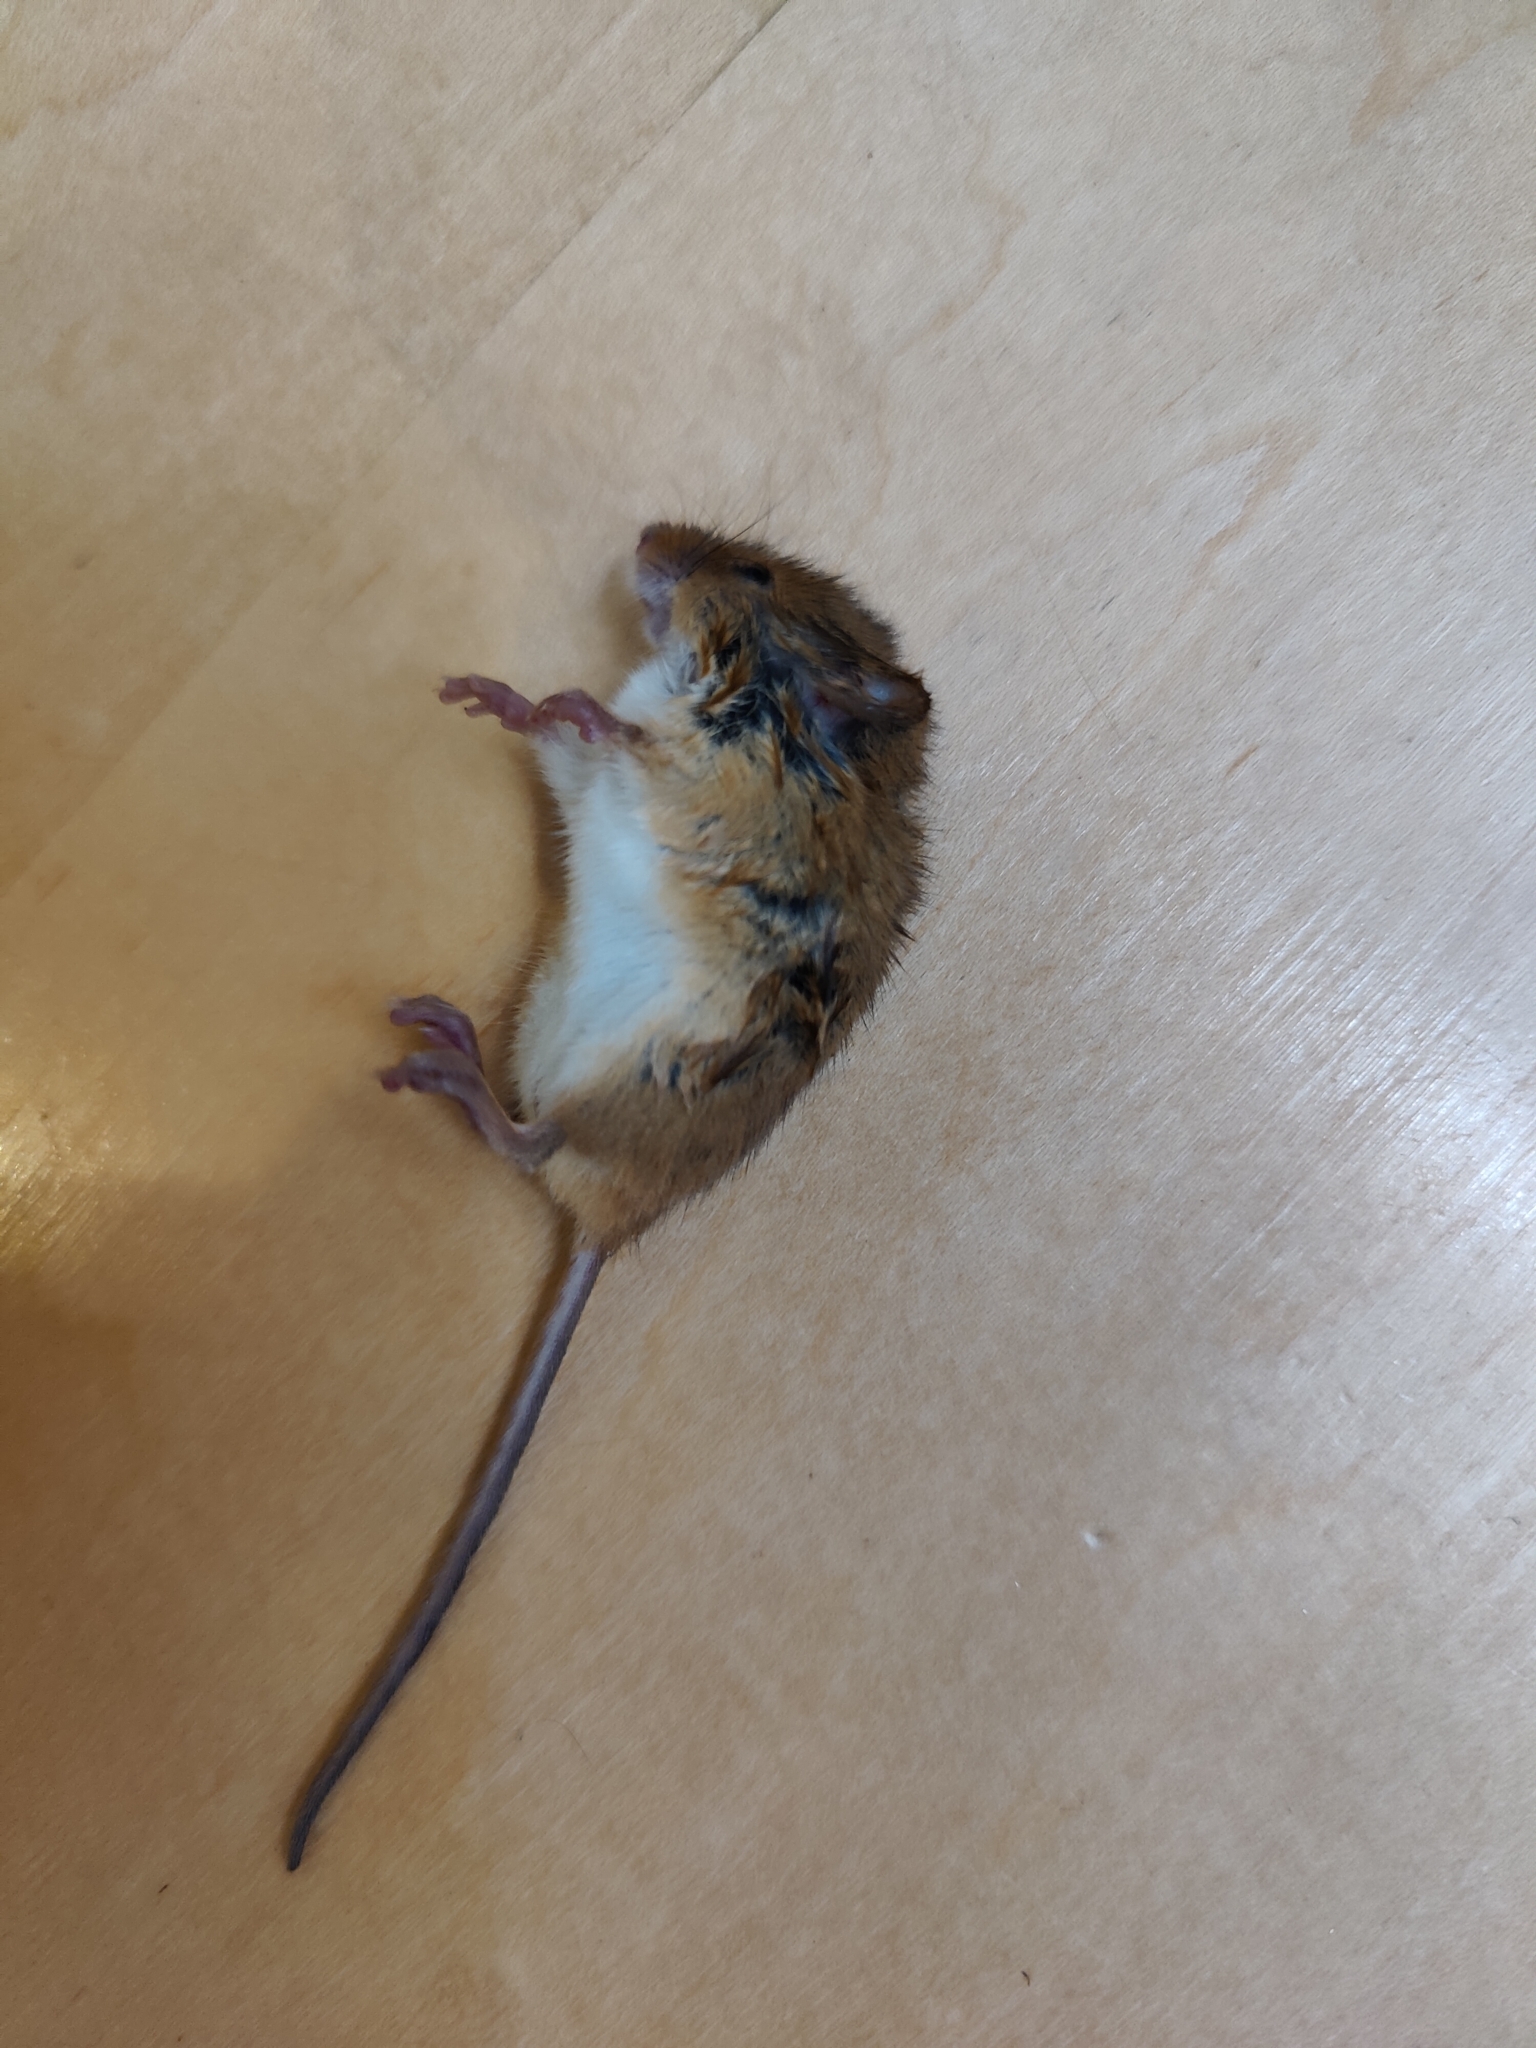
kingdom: Animalia
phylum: Chordata
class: Mammalia
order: Rodentia
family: Muridae
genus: Micromys
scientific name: Micromys minutus
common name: Harvest mouse
